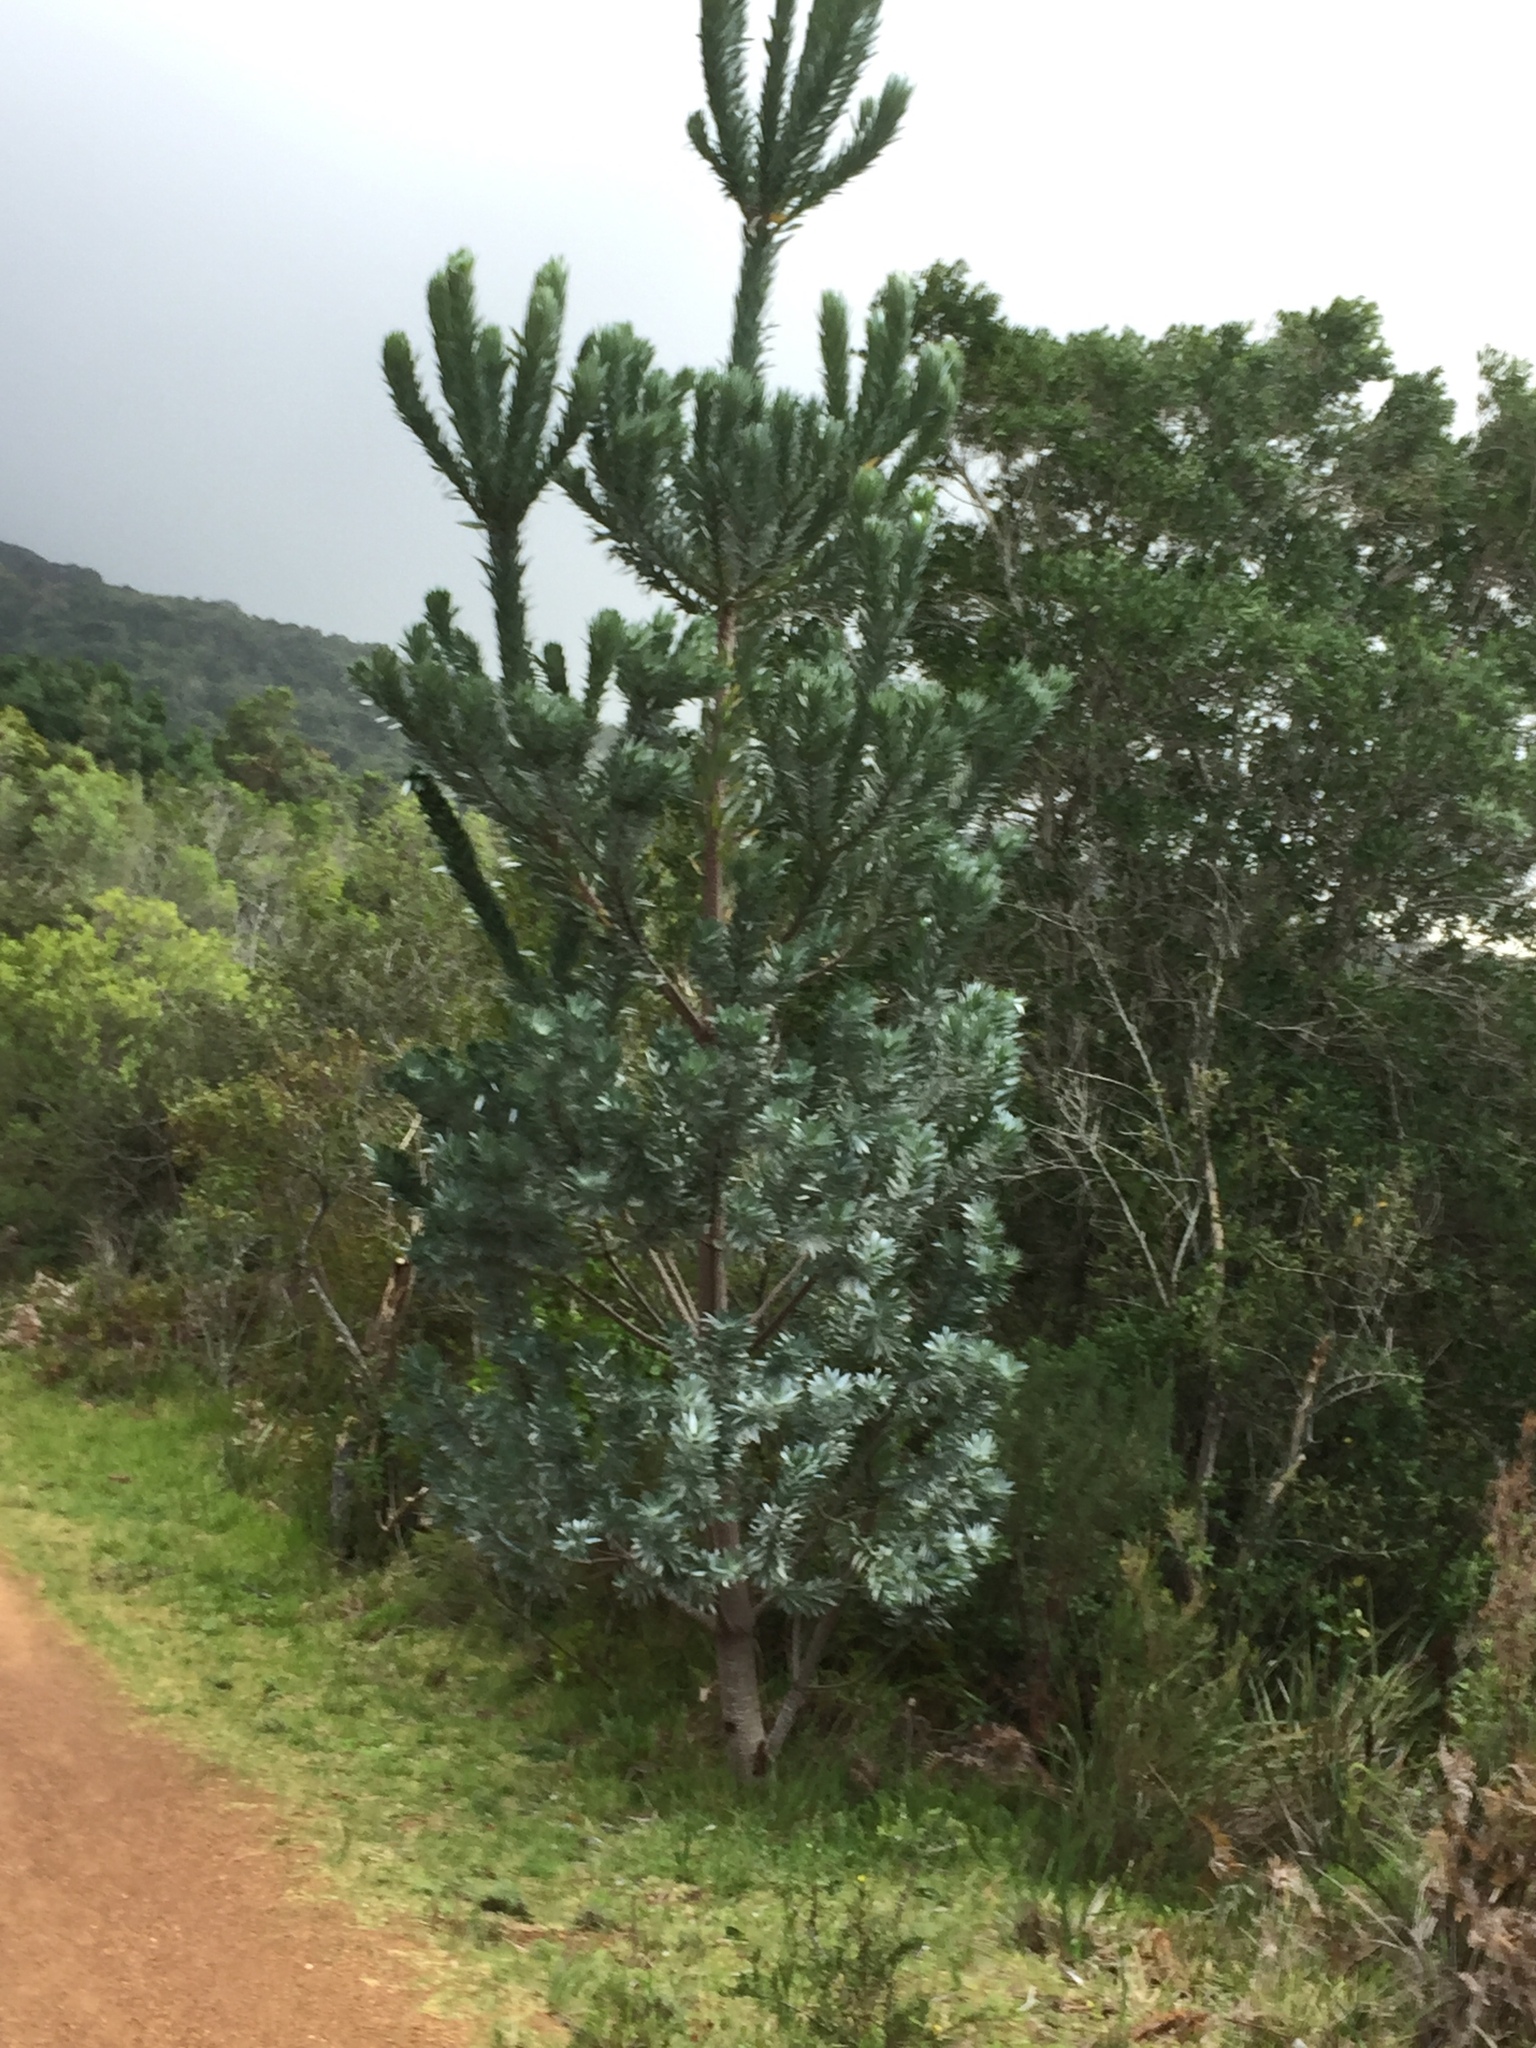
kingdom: Plantae
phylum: Tracheophyta
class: Magnoliopsida
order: Proteales
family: Proteaceae
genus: Leucadendron
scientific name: Leucadendron argenteum
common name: Cape silver tree
